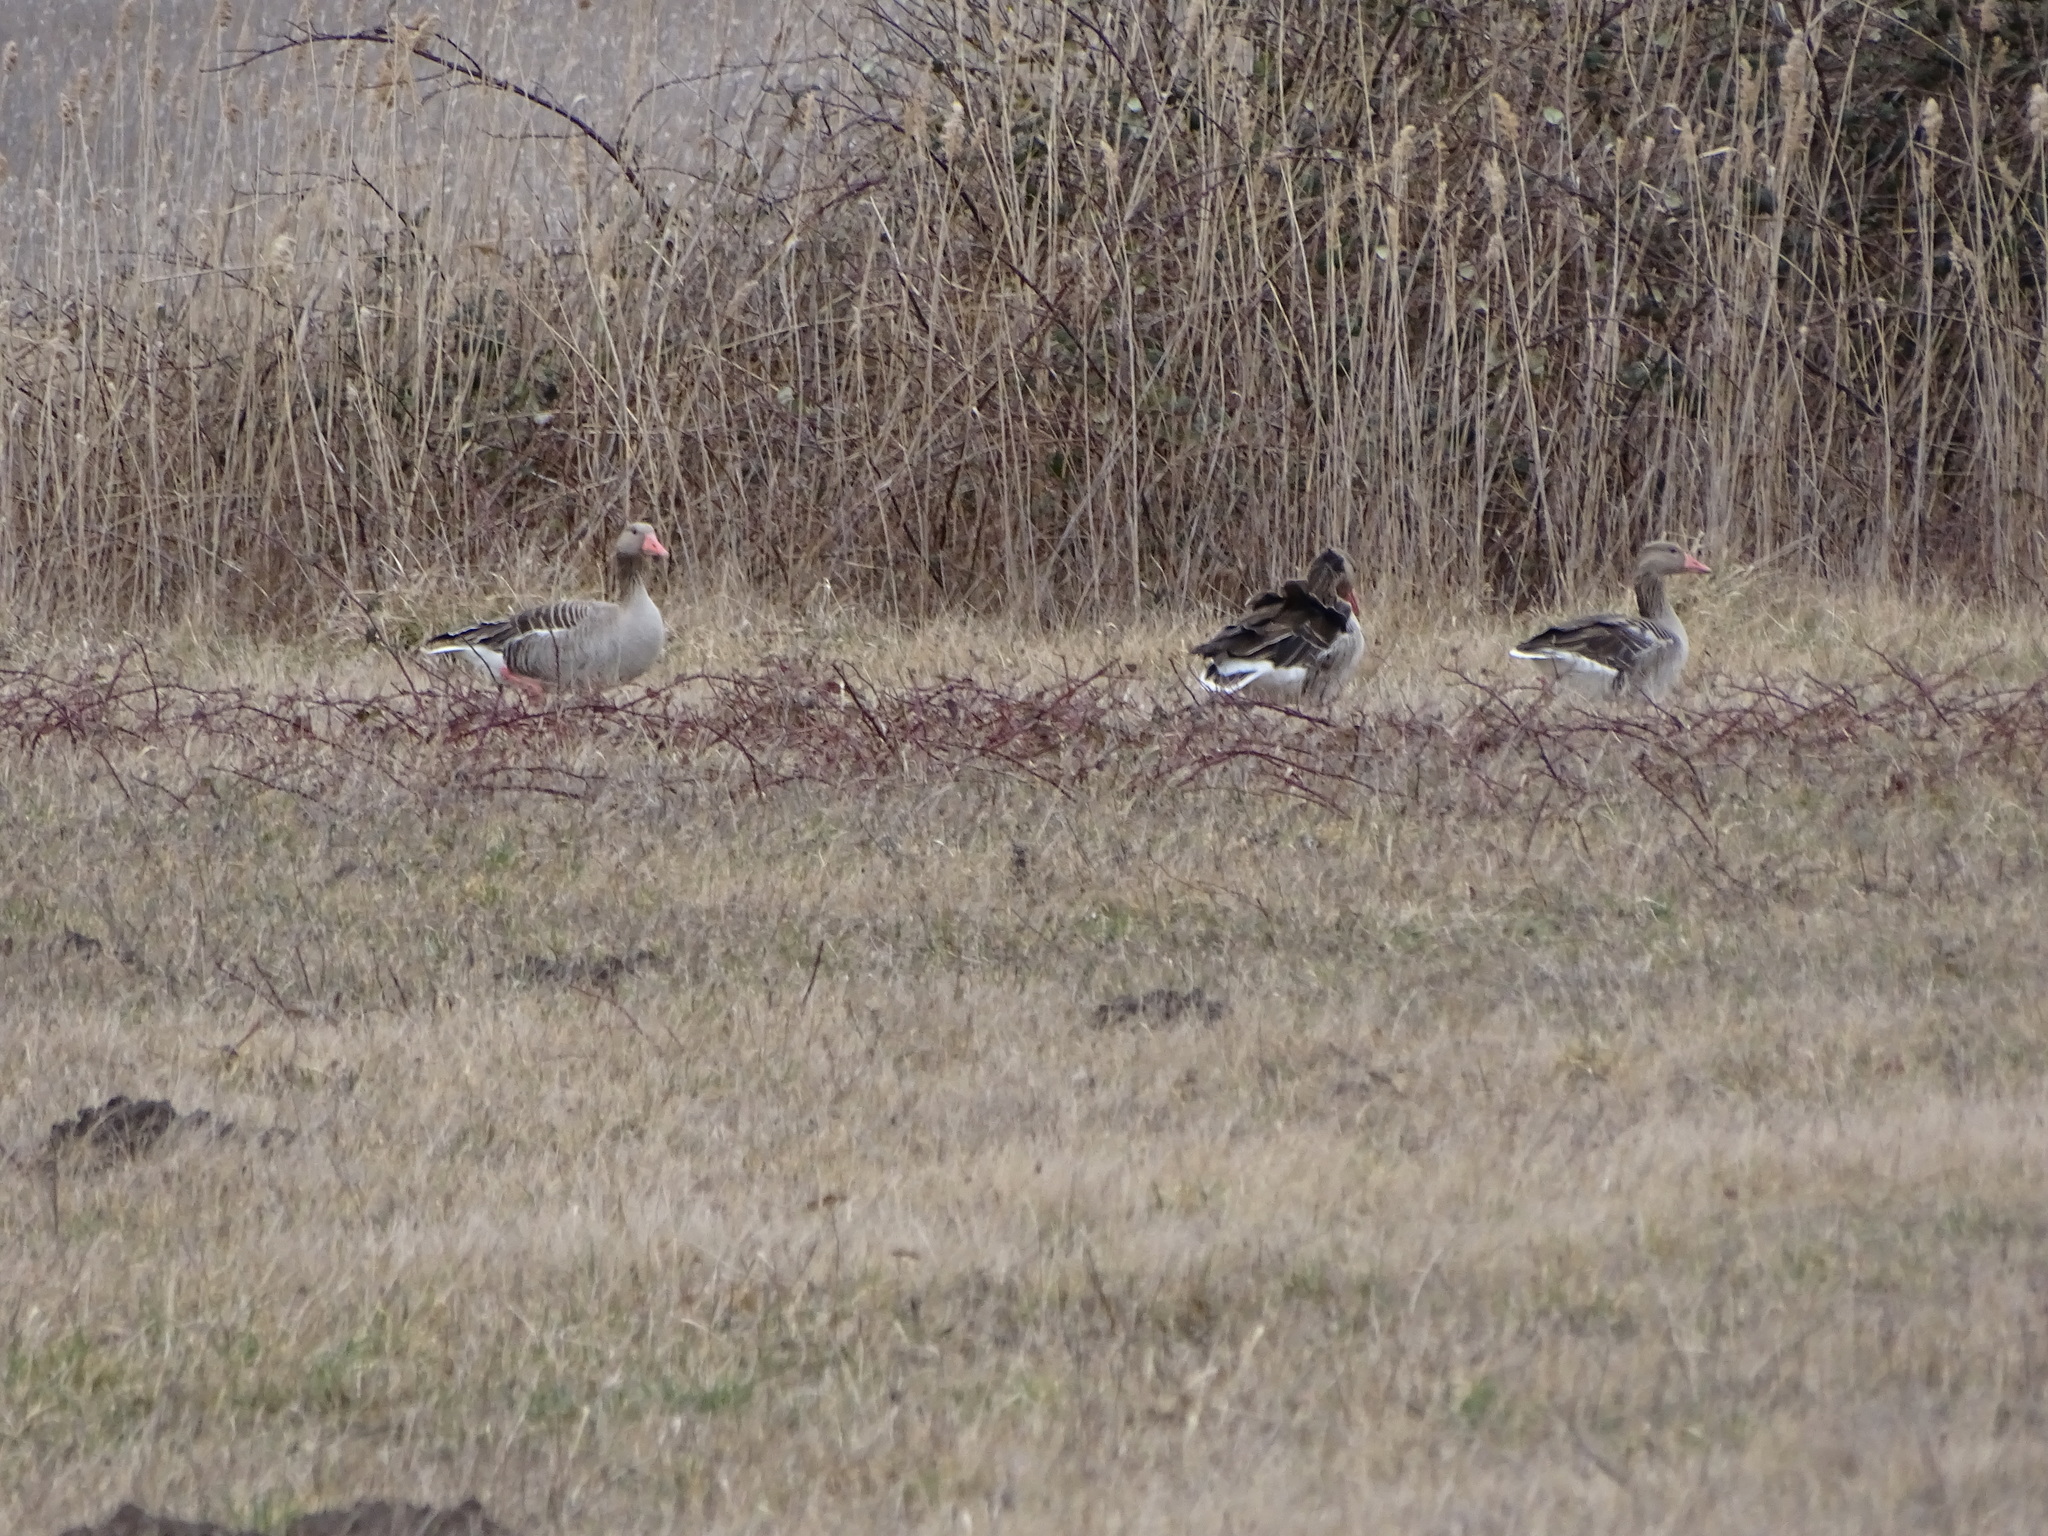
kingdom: Animalia
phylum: Chordata
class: Aves
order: Anseriformes
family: Anatidae
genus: Anser
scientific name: Anser anser
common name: Greylag goose
